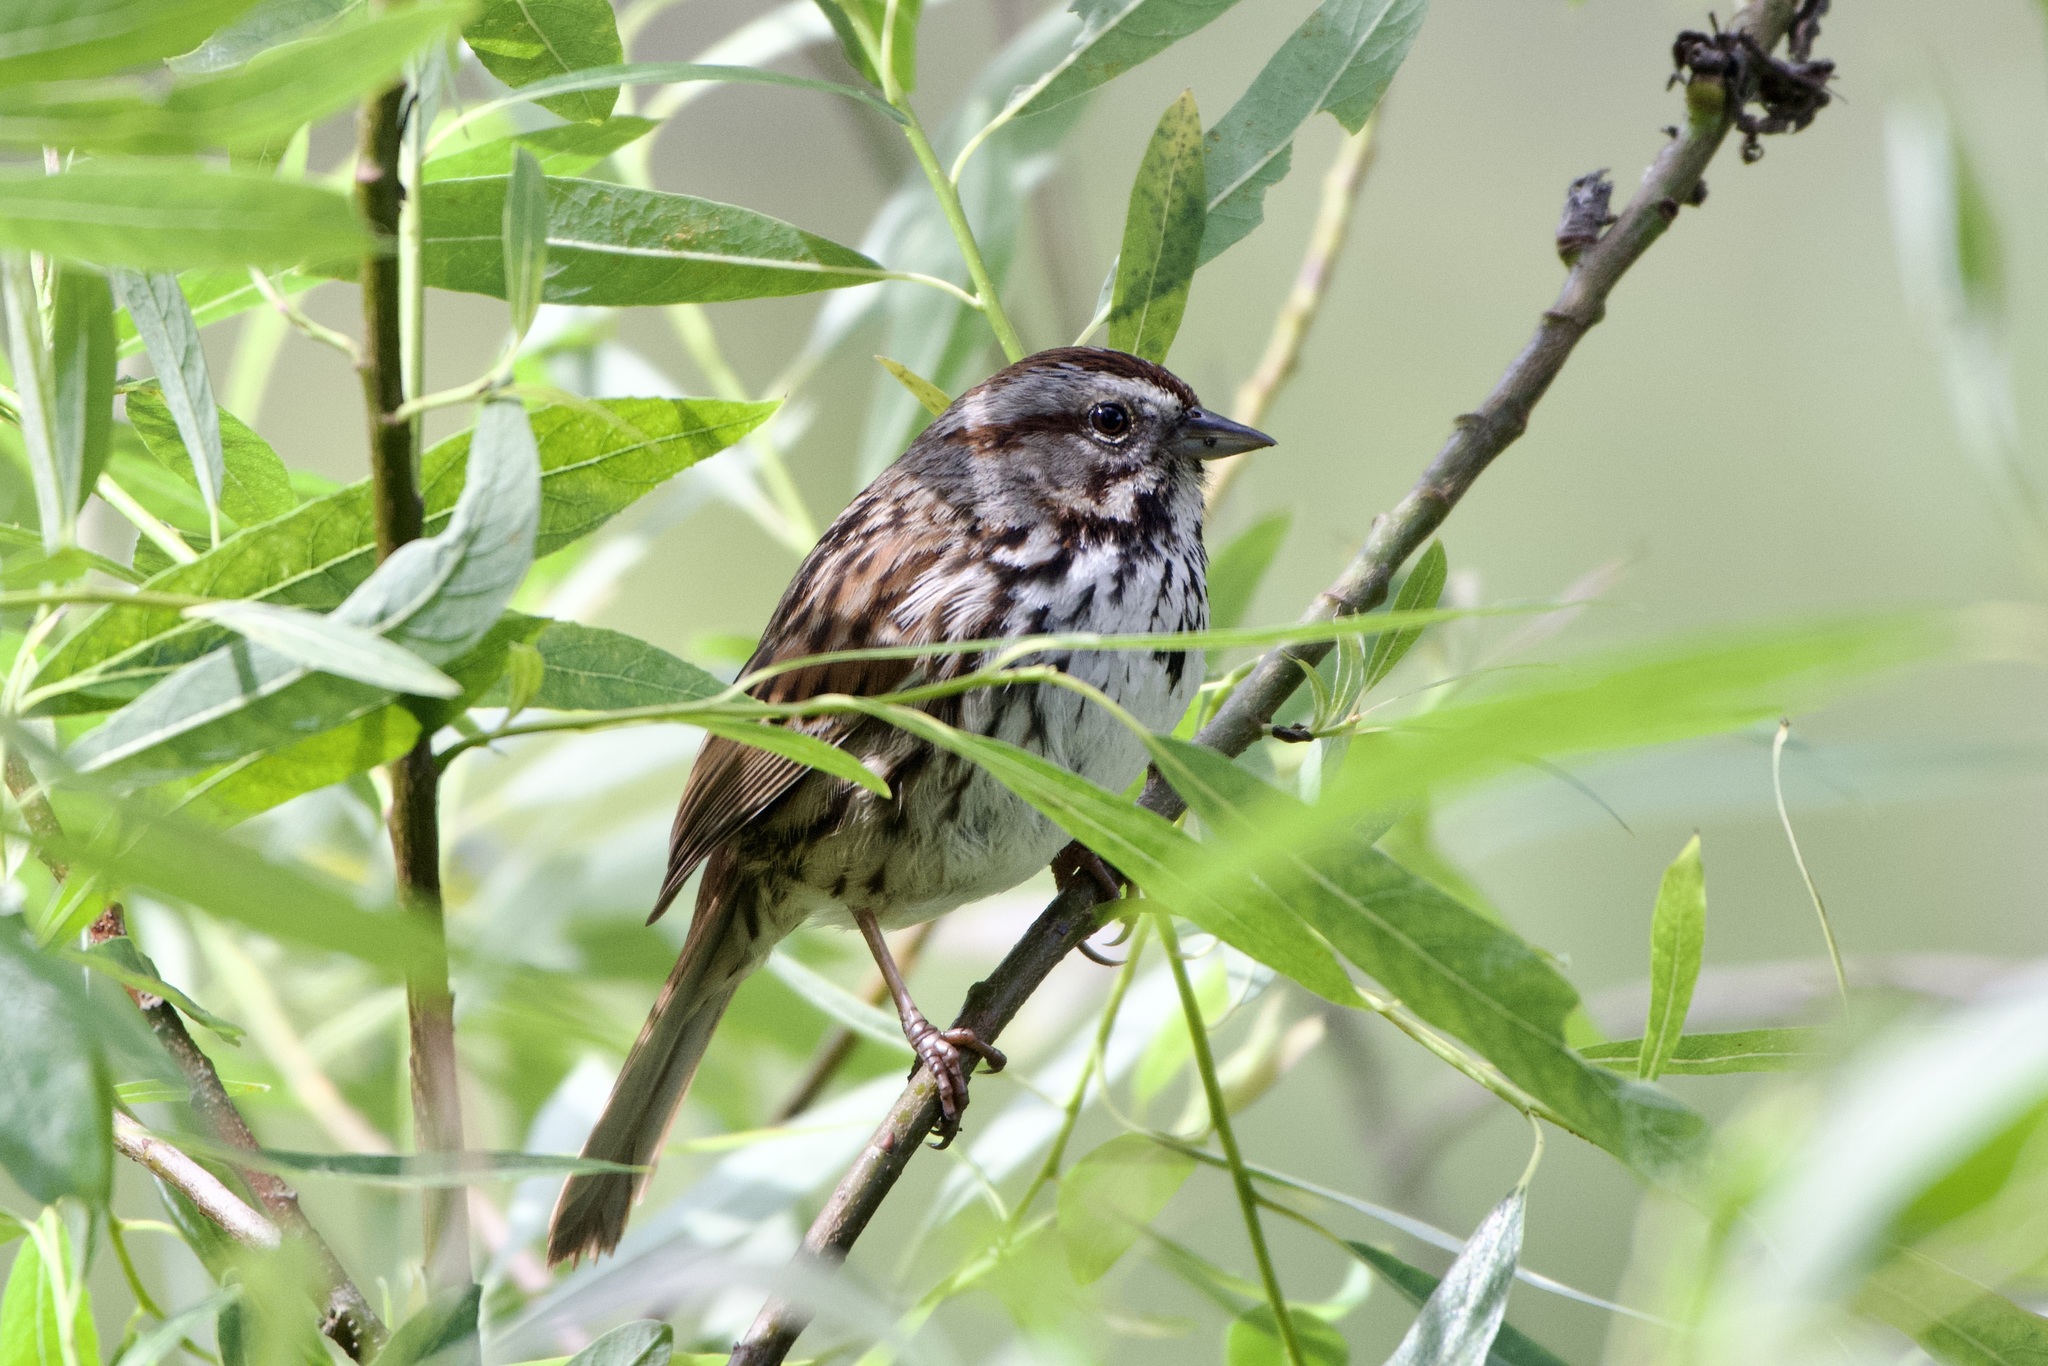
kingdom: Animalia
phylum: Chordata
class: Aves
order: Passeriformes
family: Passerellidae
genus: Melospiza
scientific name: Melospiza melodia
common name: Song sparrow
